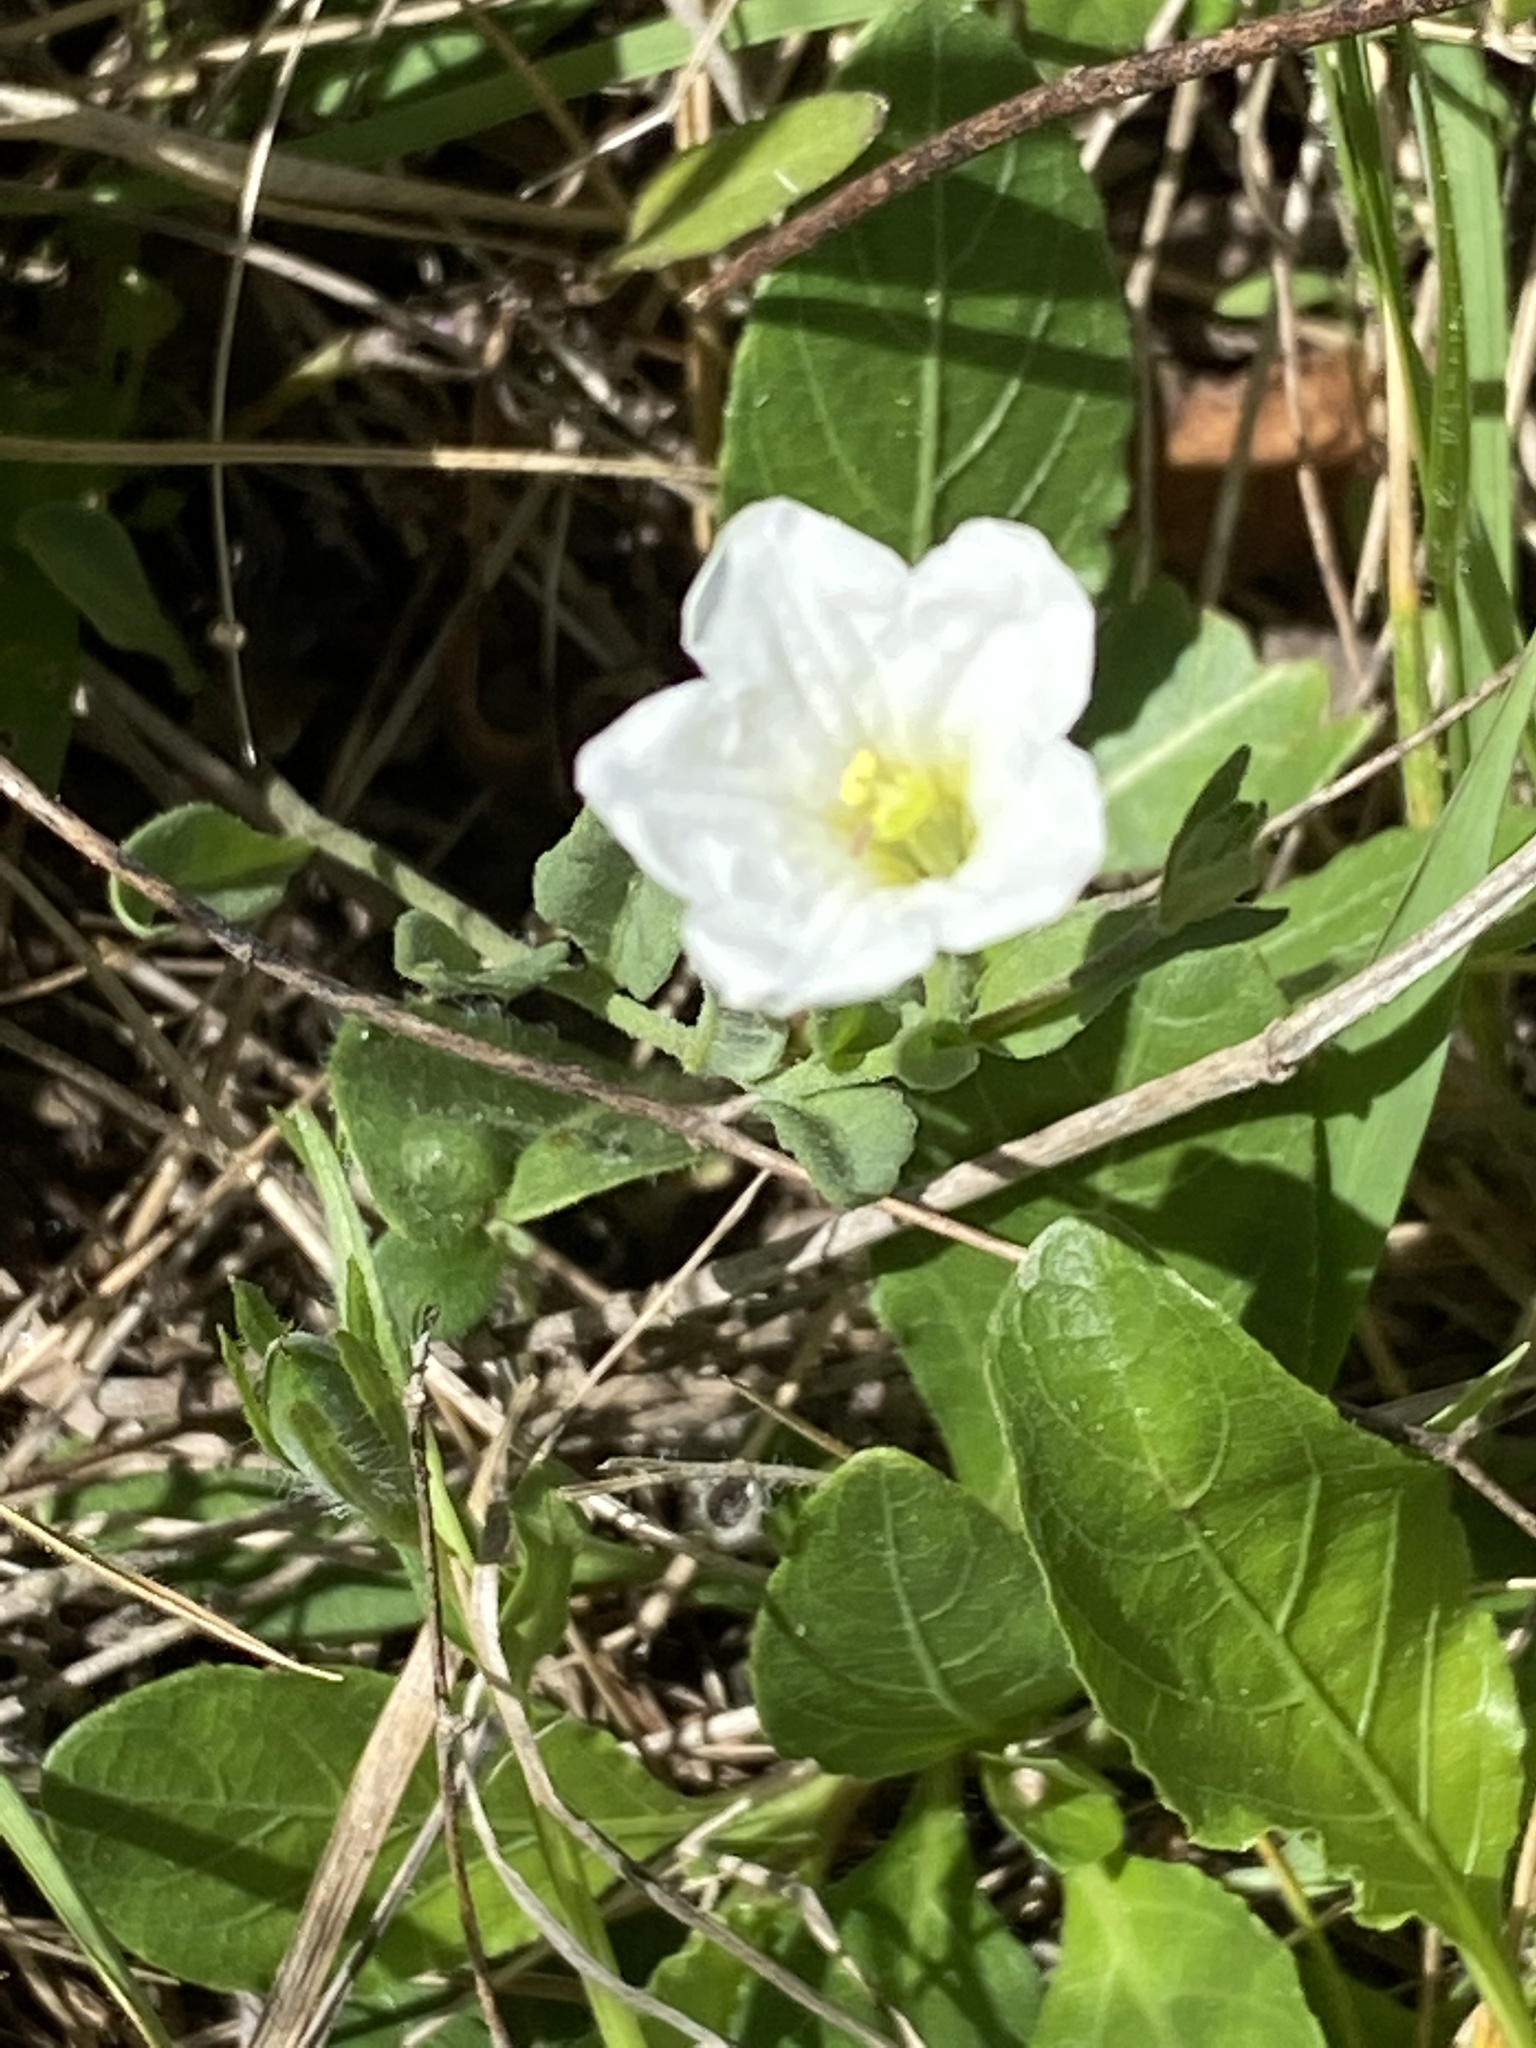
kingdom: Plantae
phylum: Tracheophyta
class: Magnoliopsida
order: Solanales
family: Solanaceae
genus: Salpiglossis
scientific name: Salpiglossis erecta
